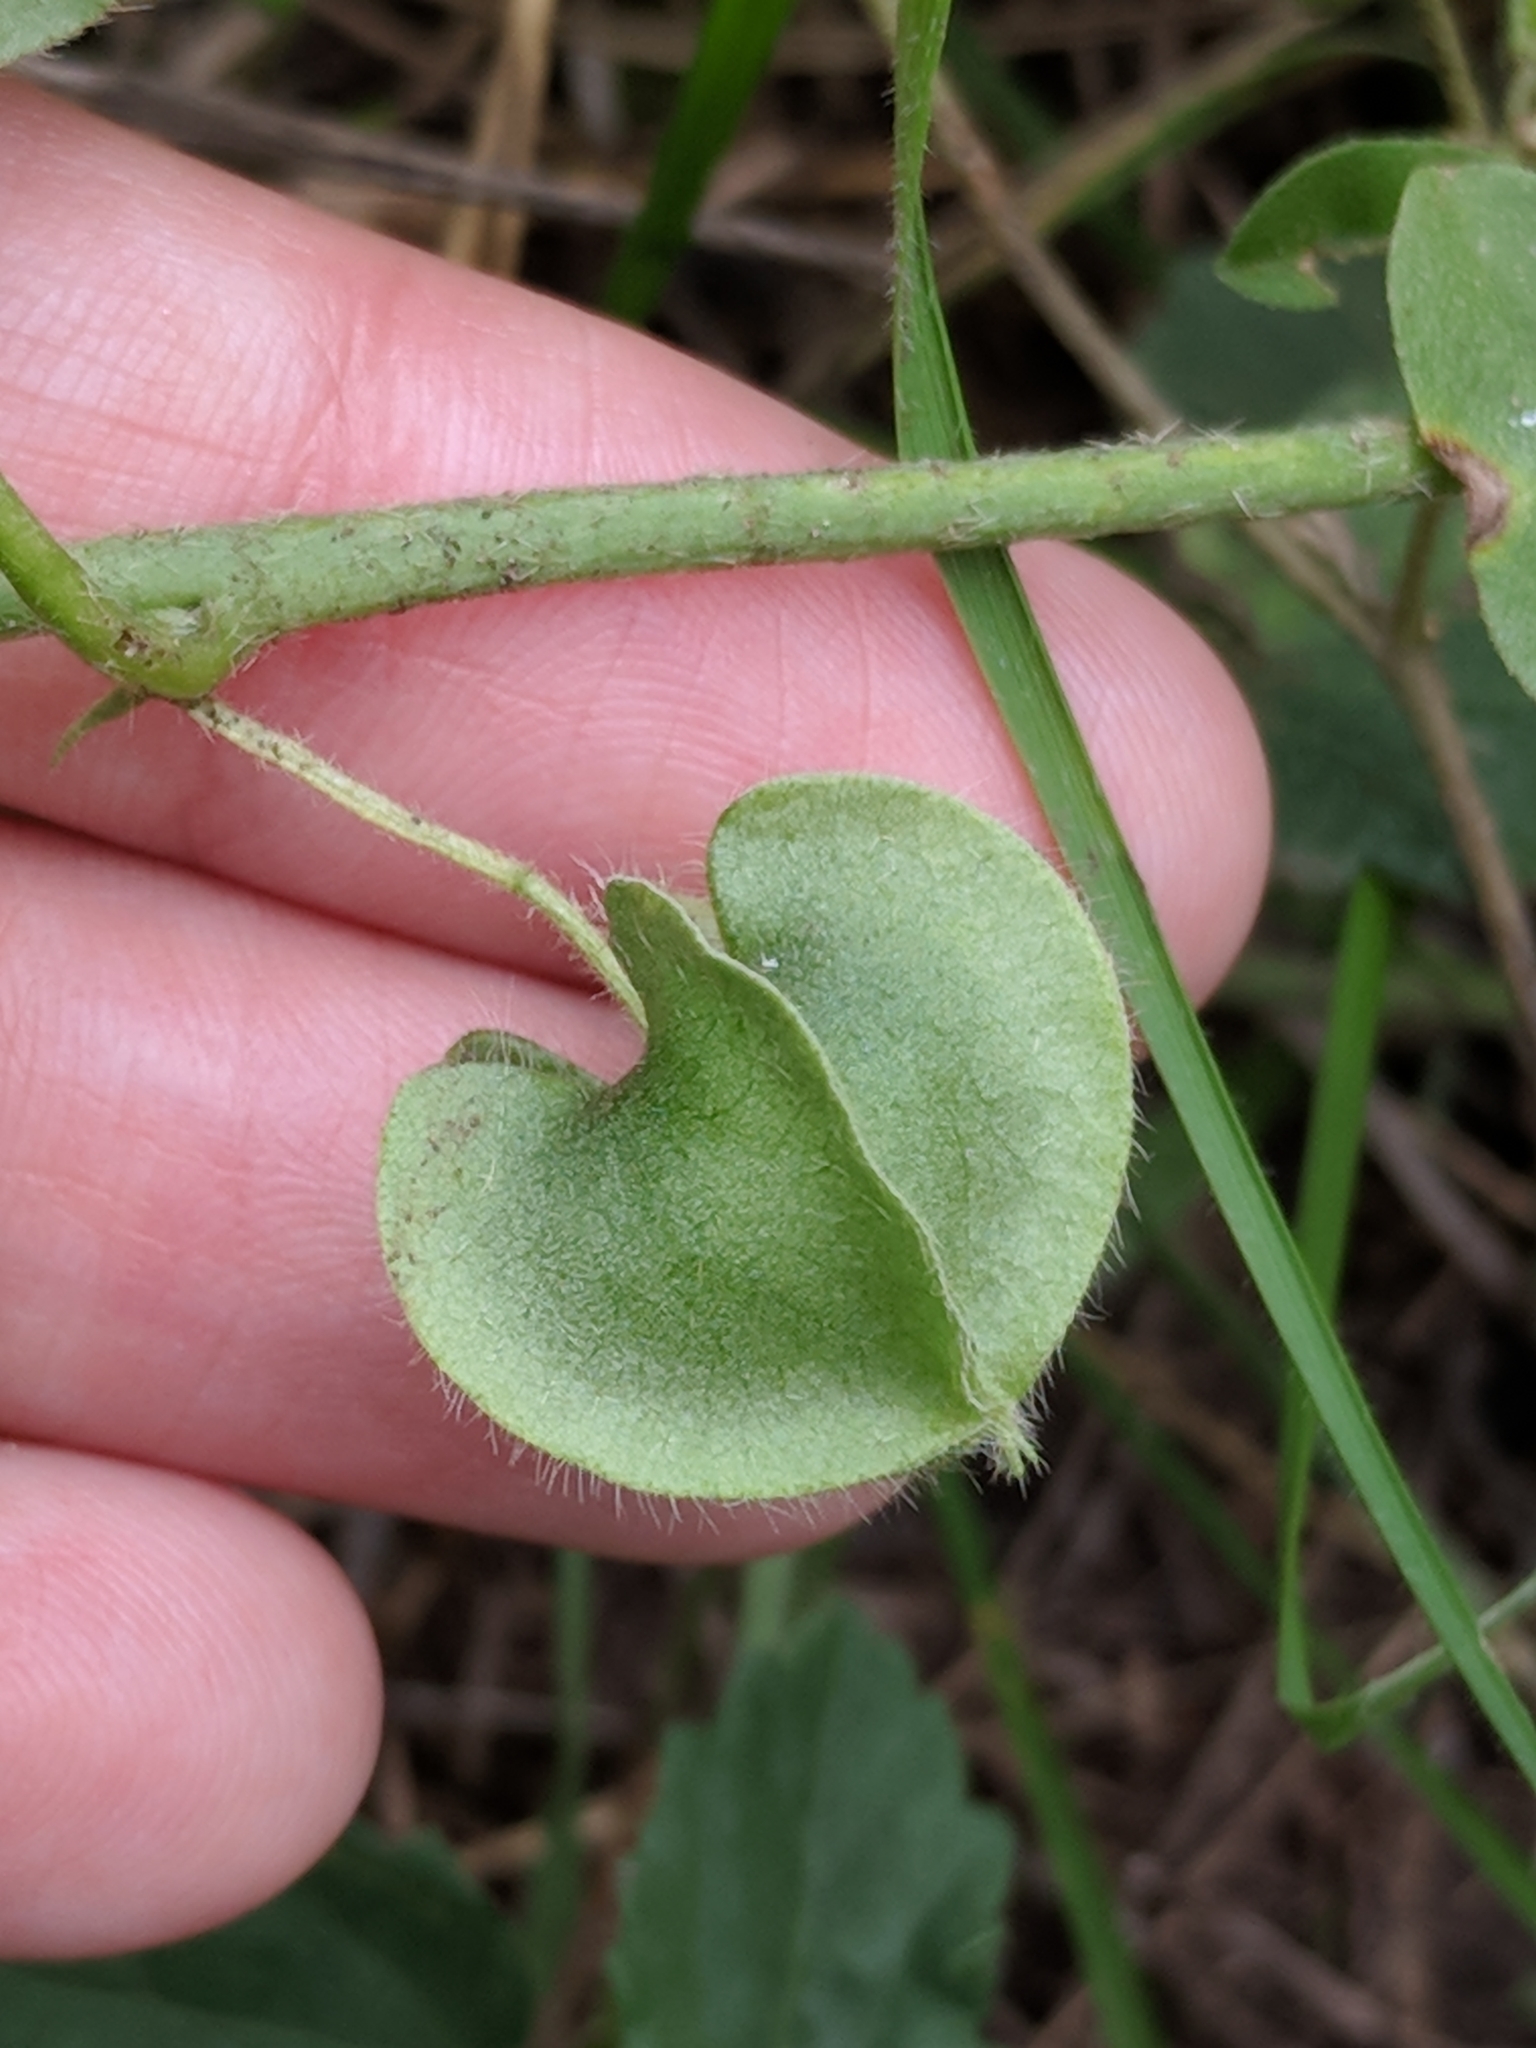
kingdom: Plantae
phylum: Tracheophyta
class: Magnoliopsida
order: Malvales
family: Malvaceae
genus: Rhynchosida
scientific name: Rhynchosida physocalyx
